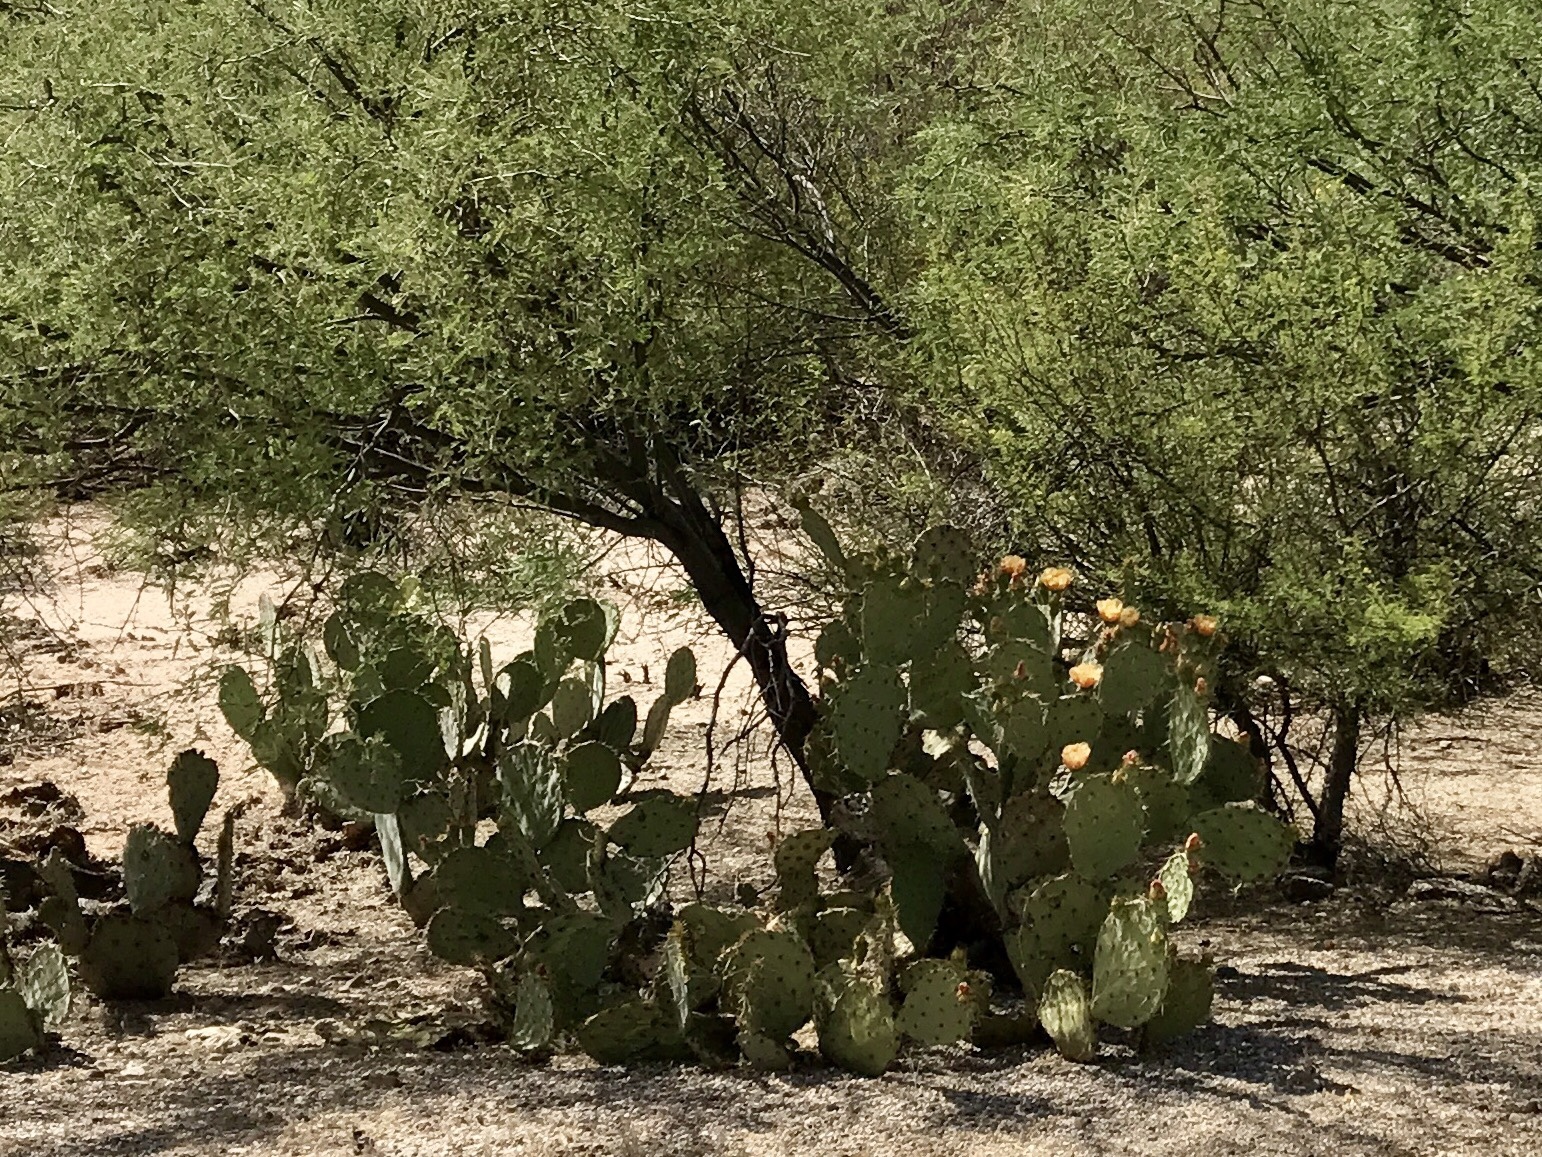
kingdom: Plantae
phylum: Tracheophyta
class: Magnoliopsida
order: Caryophyllales
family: Cactaceae
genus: Opuntia
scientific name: Opuntia engelmannii
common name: Cactus-apple
